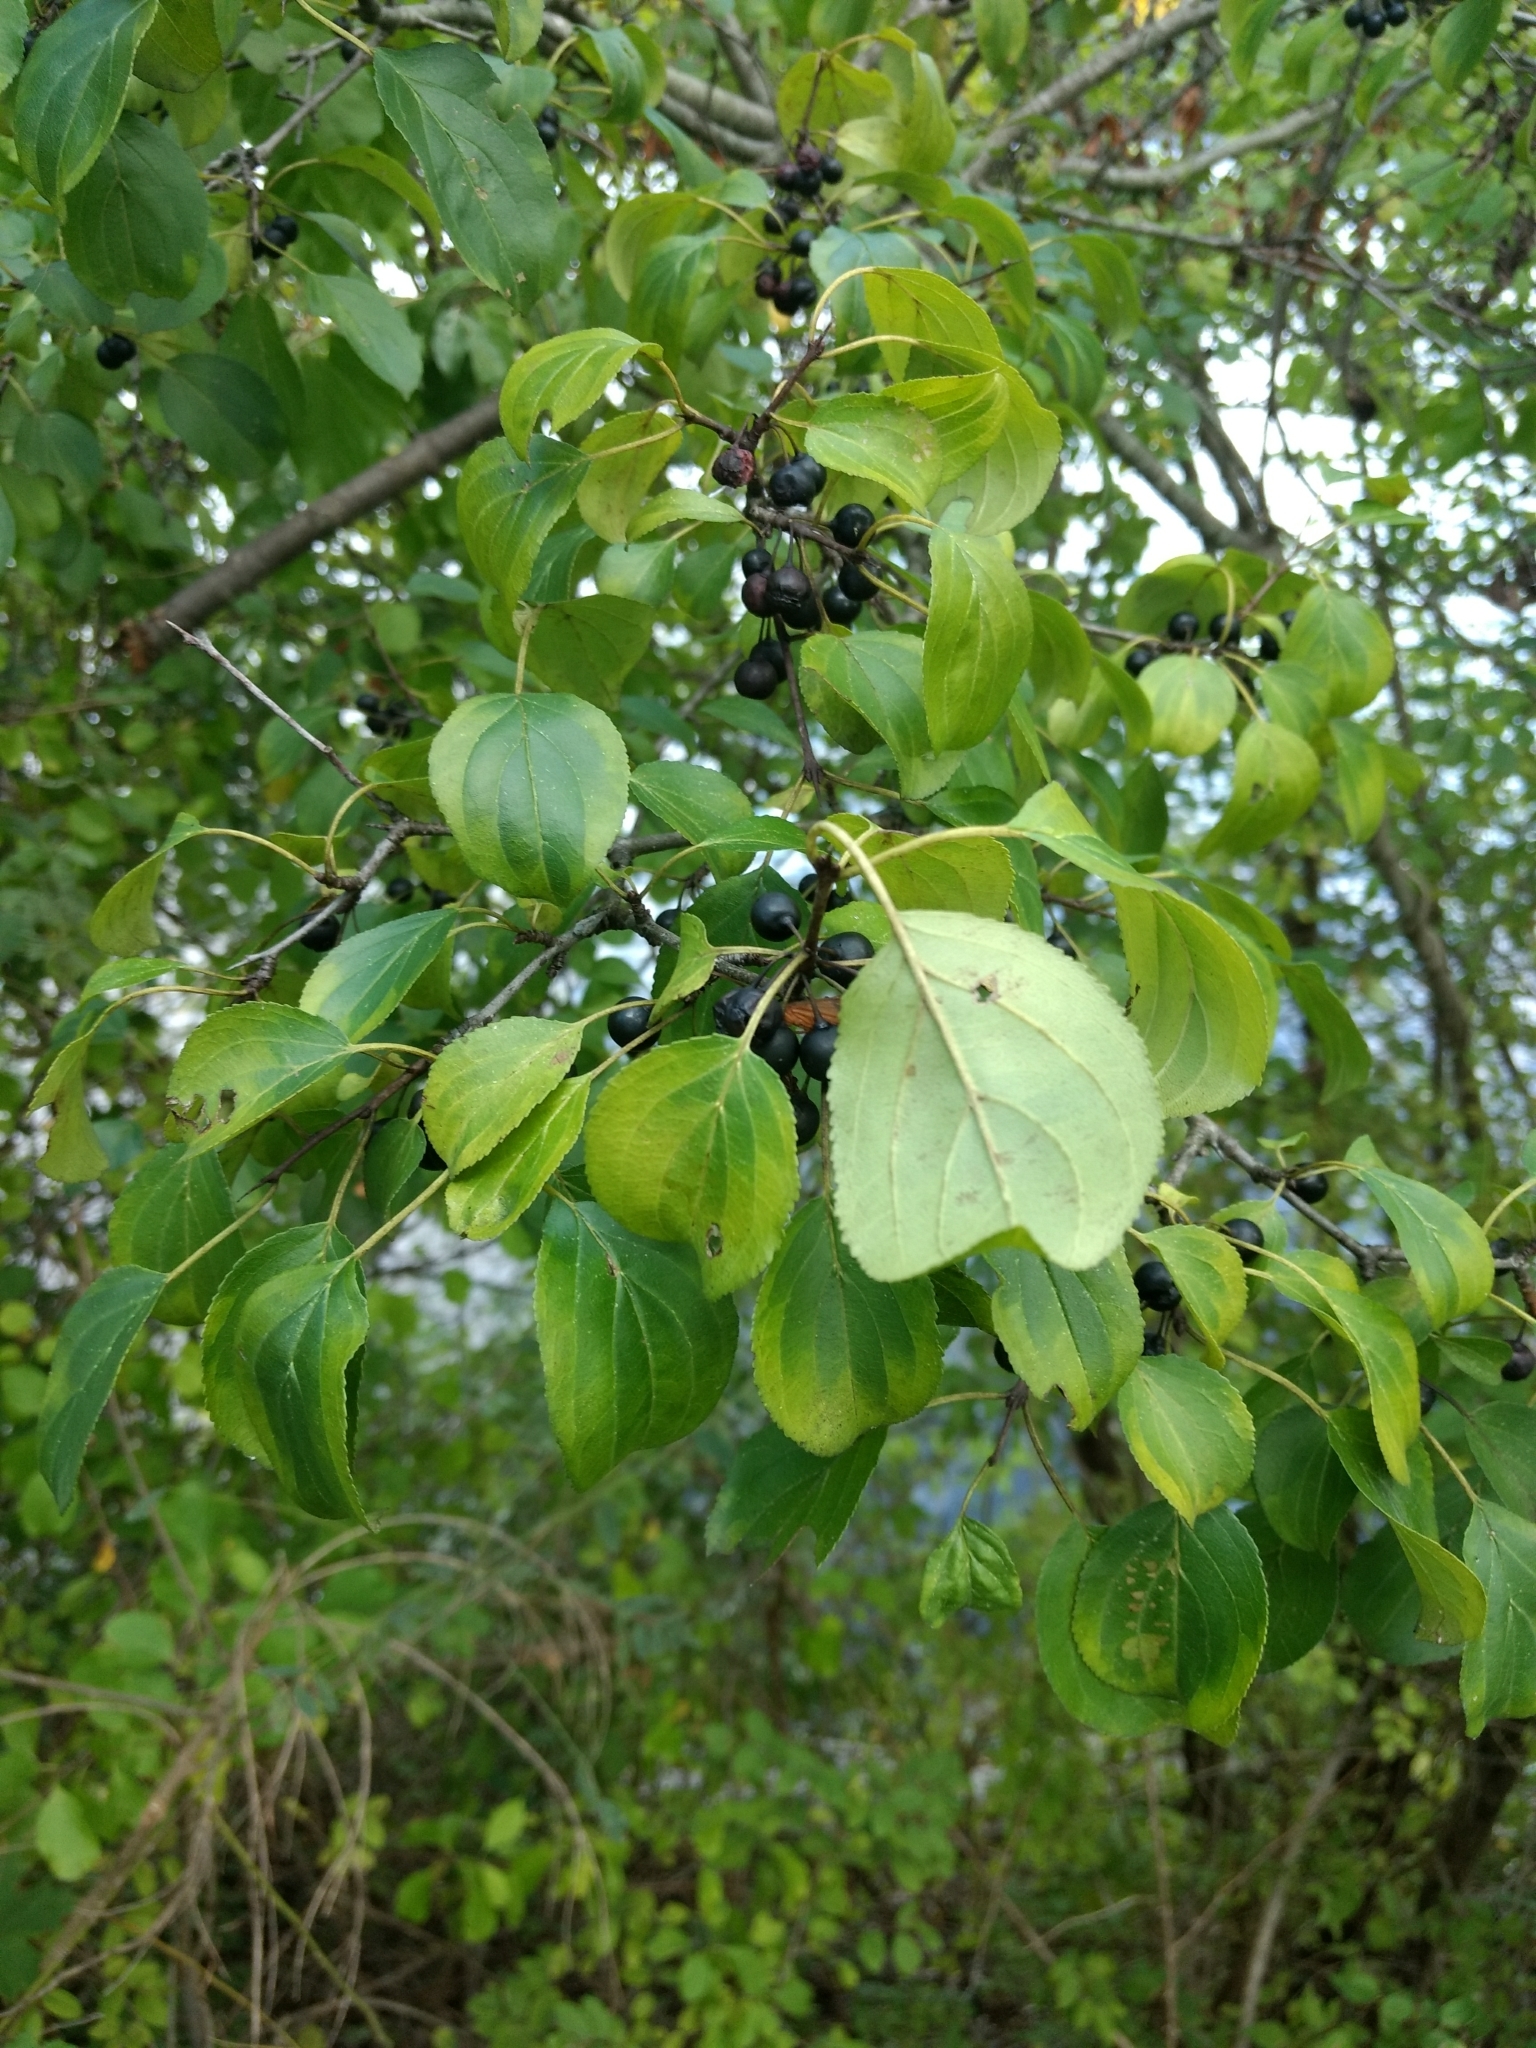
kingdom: Plantae
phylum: Tracheophyta
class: Magnoliopsida
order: Rosales
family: Rhamnaceae
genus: Rhamnus
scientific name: Rhamnus cathartica
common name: Common buckthorn
